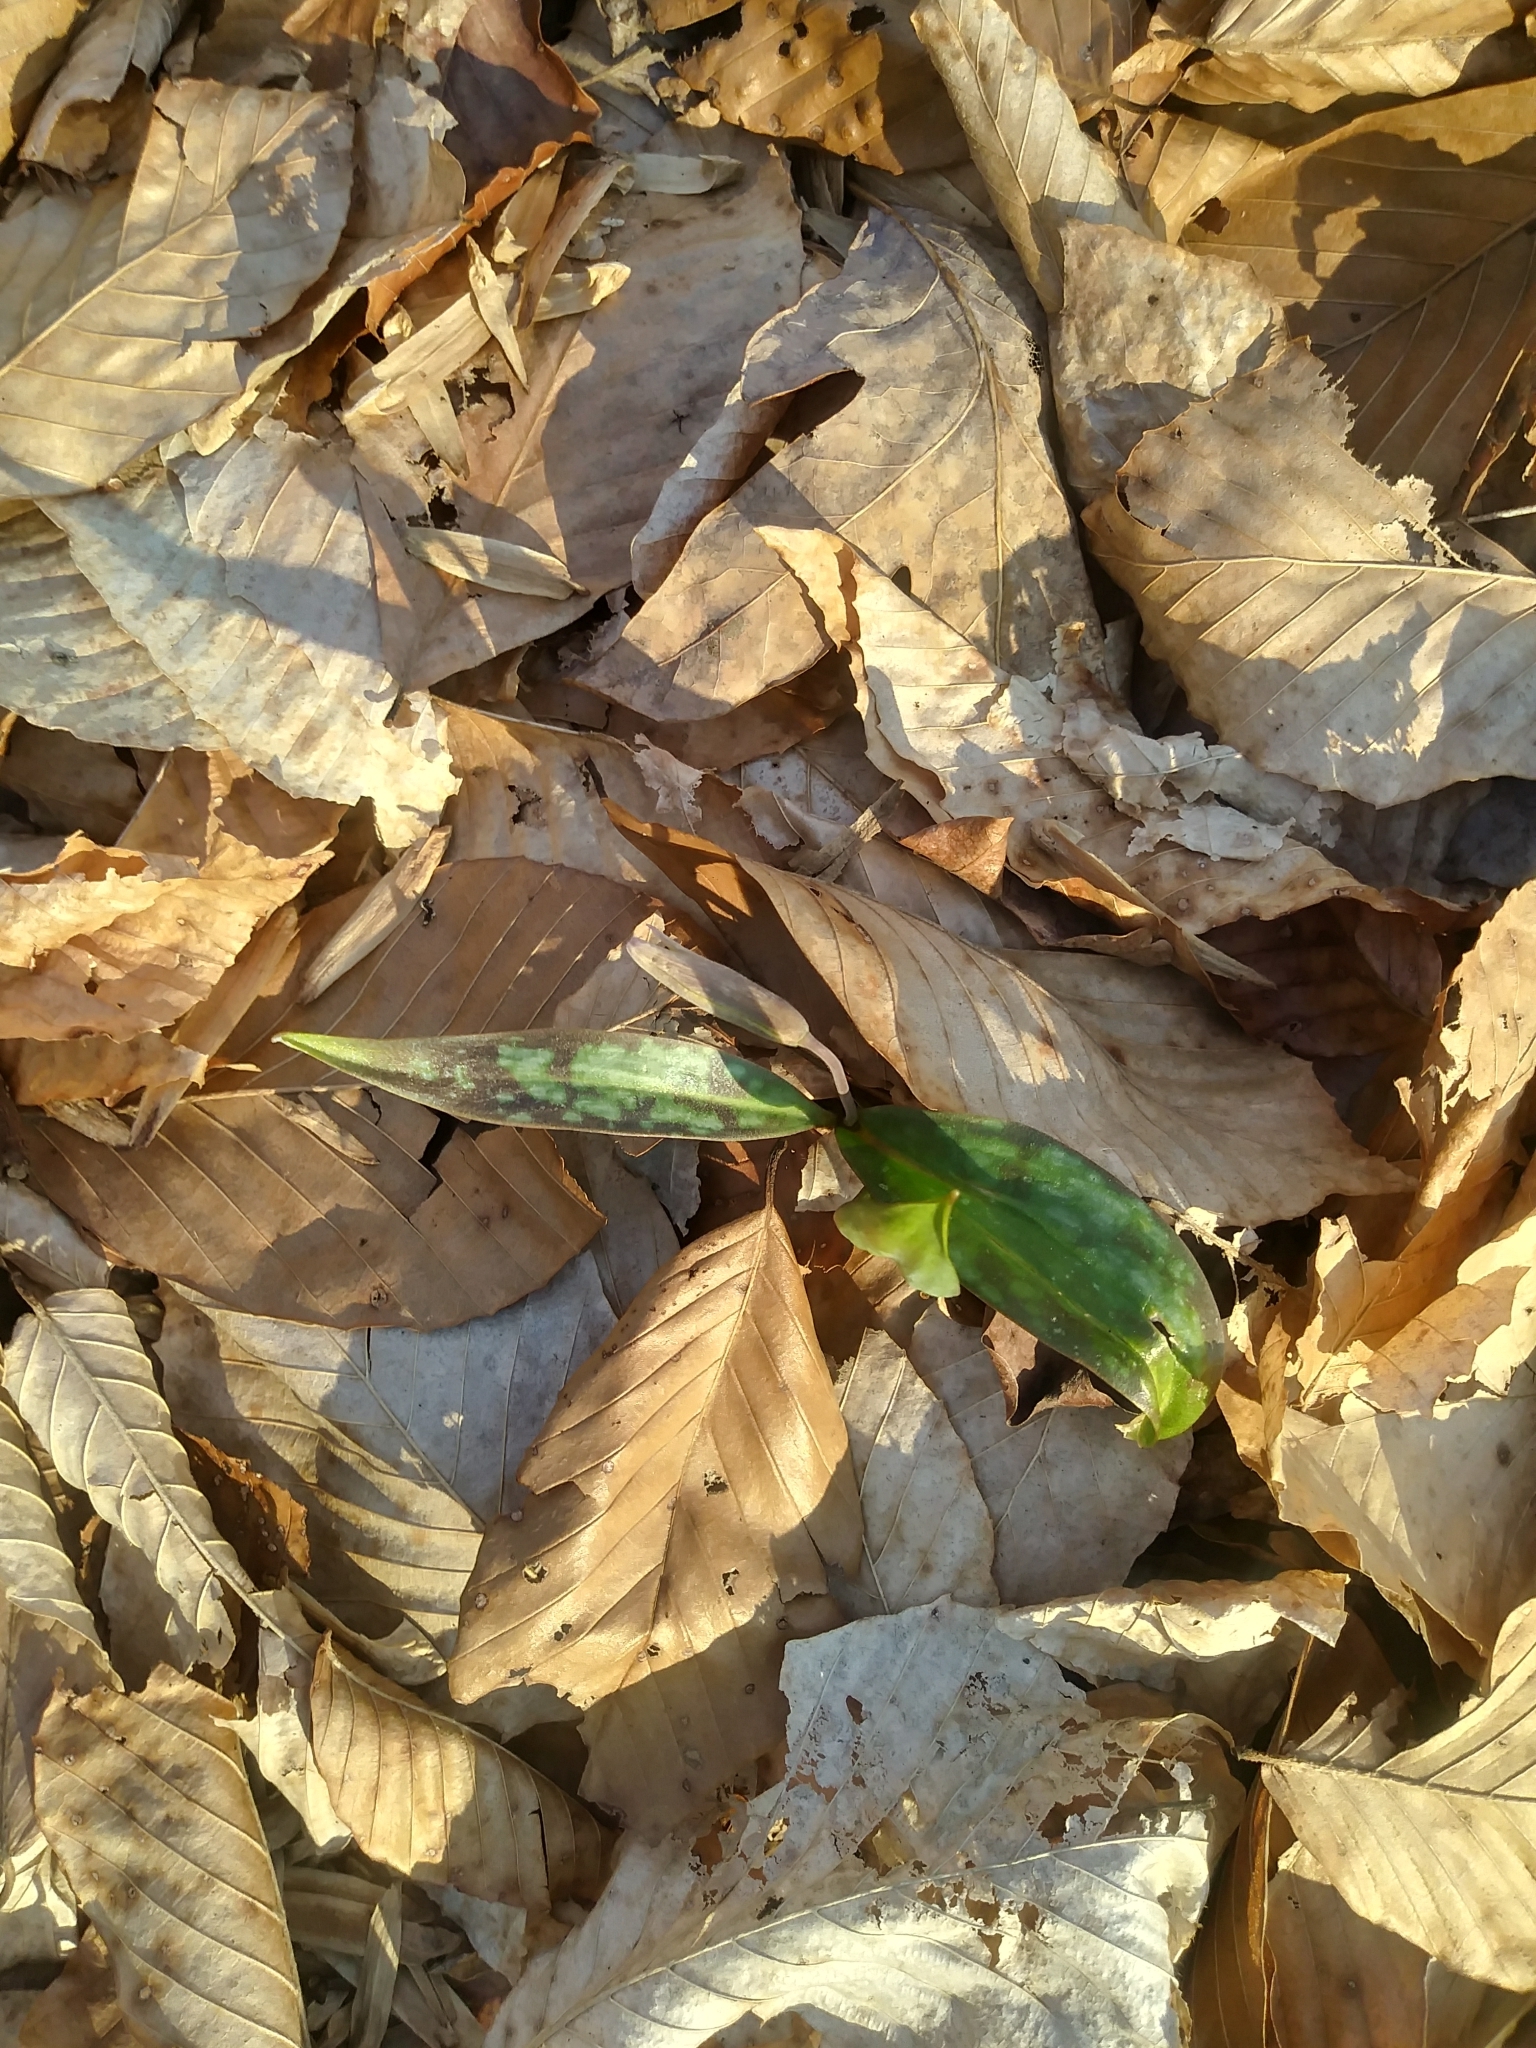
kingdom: Plantae
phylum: Tracheophyta
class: Liliopsida
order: Liliales
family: Liliaceae
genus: Erythronium
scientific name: Erythronium americanum
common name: Yellow adder's-tongue
